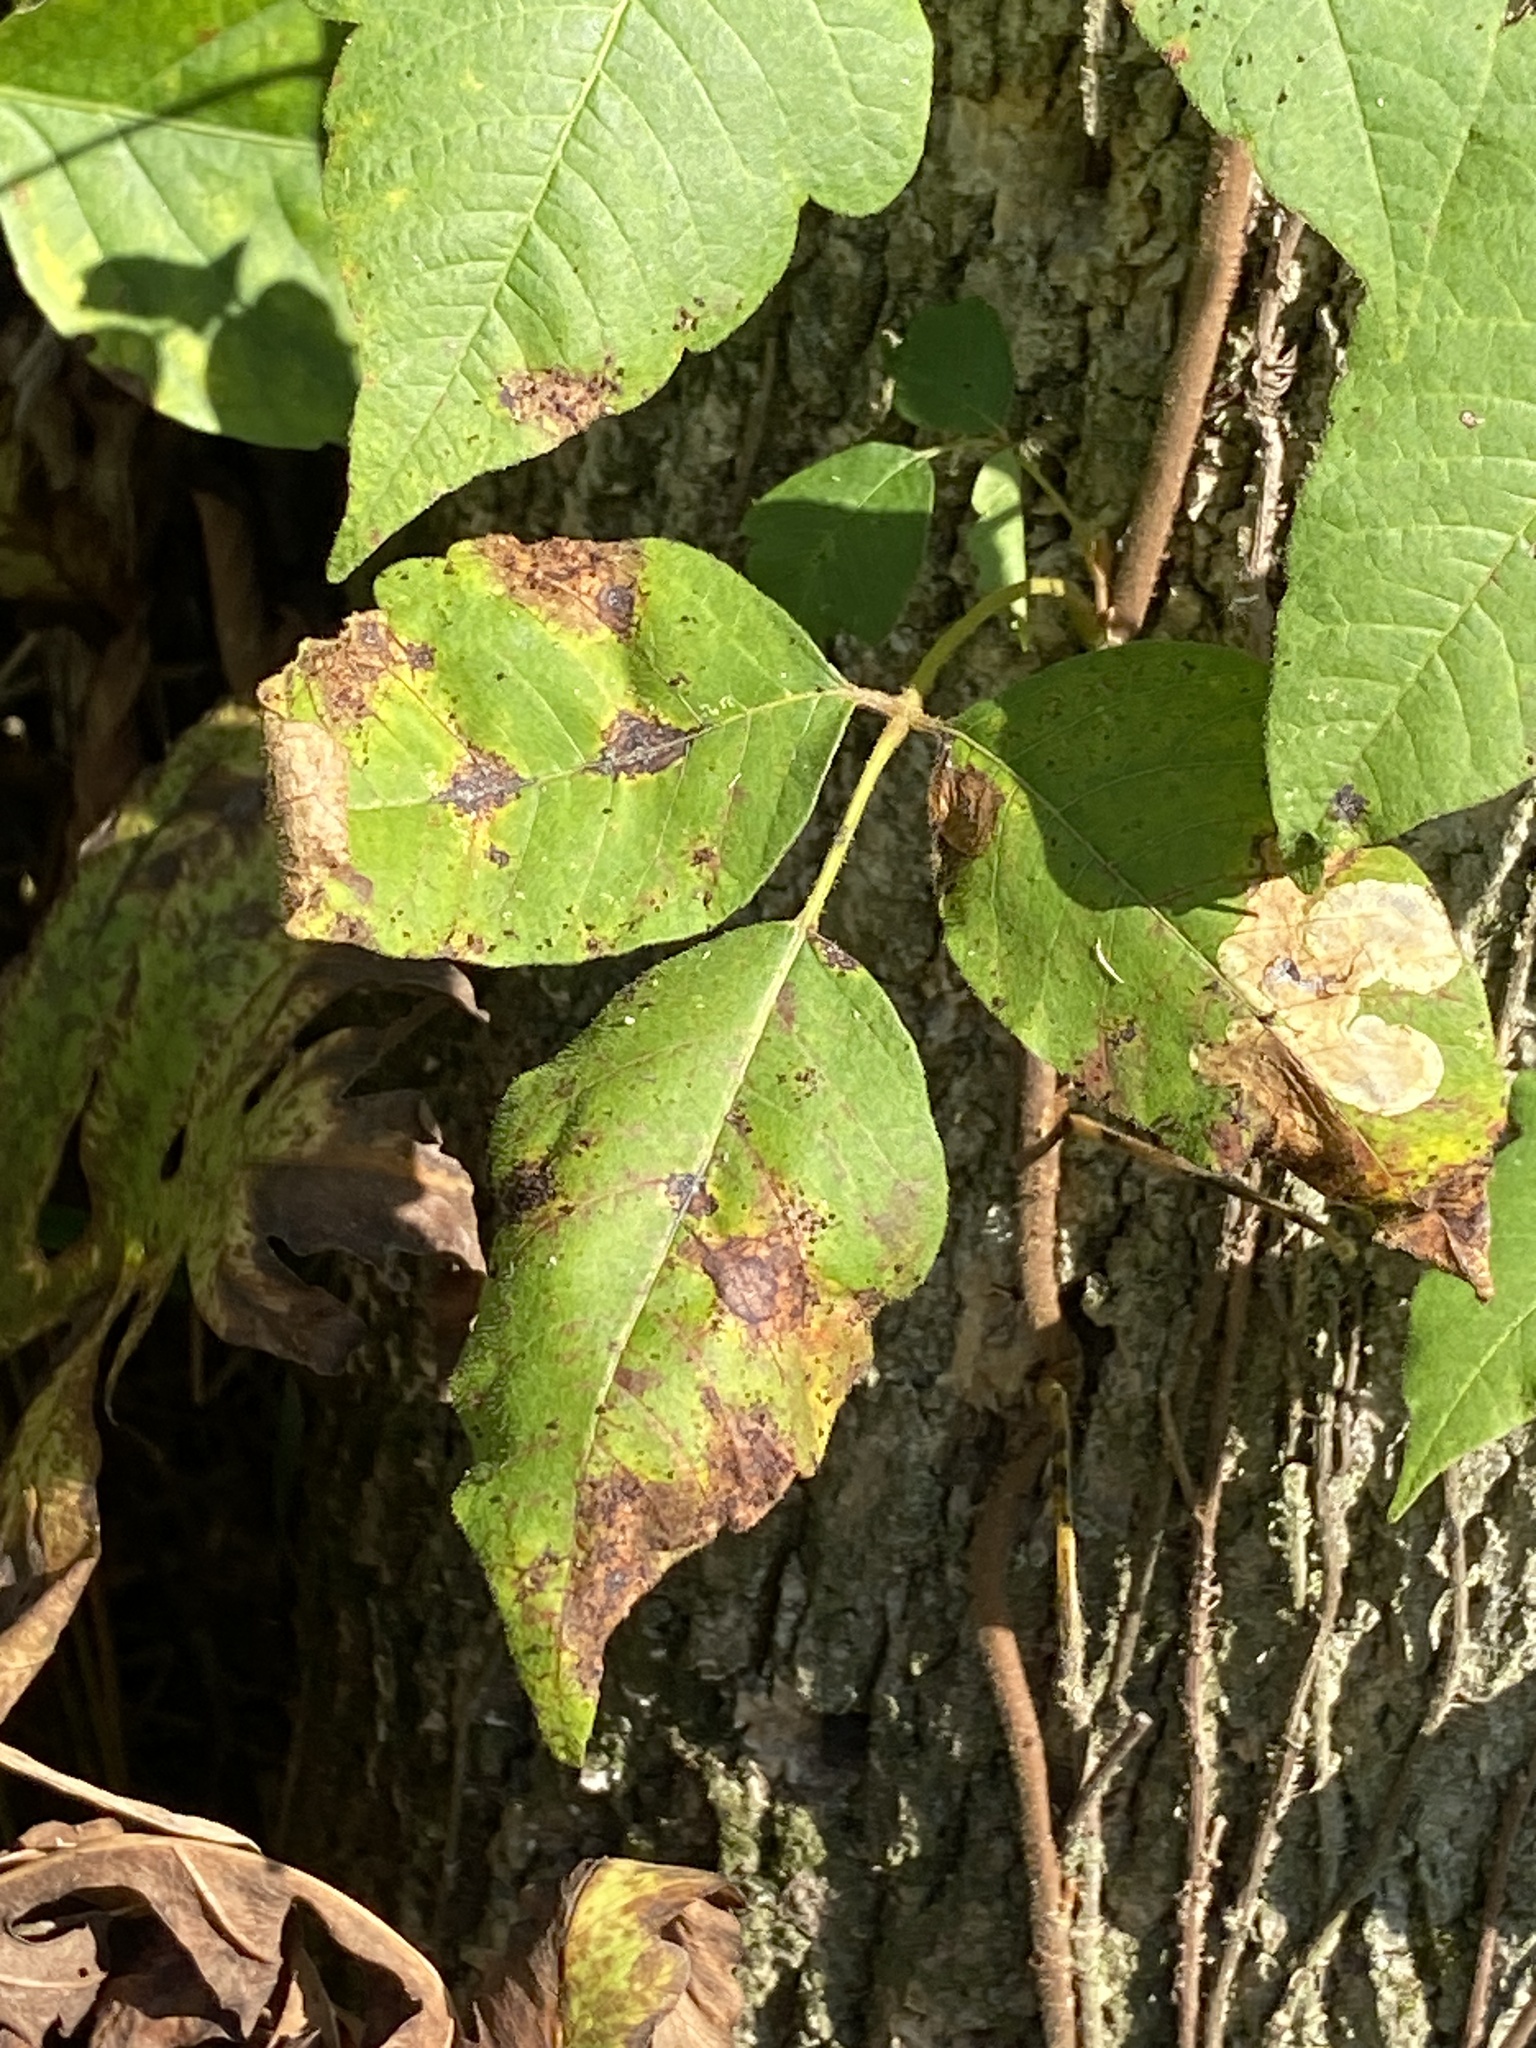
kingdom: Animalia
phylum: Arthropoda
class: Insecta
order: Lepidoptera
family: Gracillariidae
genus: Cameraria
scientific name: Cameraria guttifinitella
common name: Poison ivy leaf-miner moth
